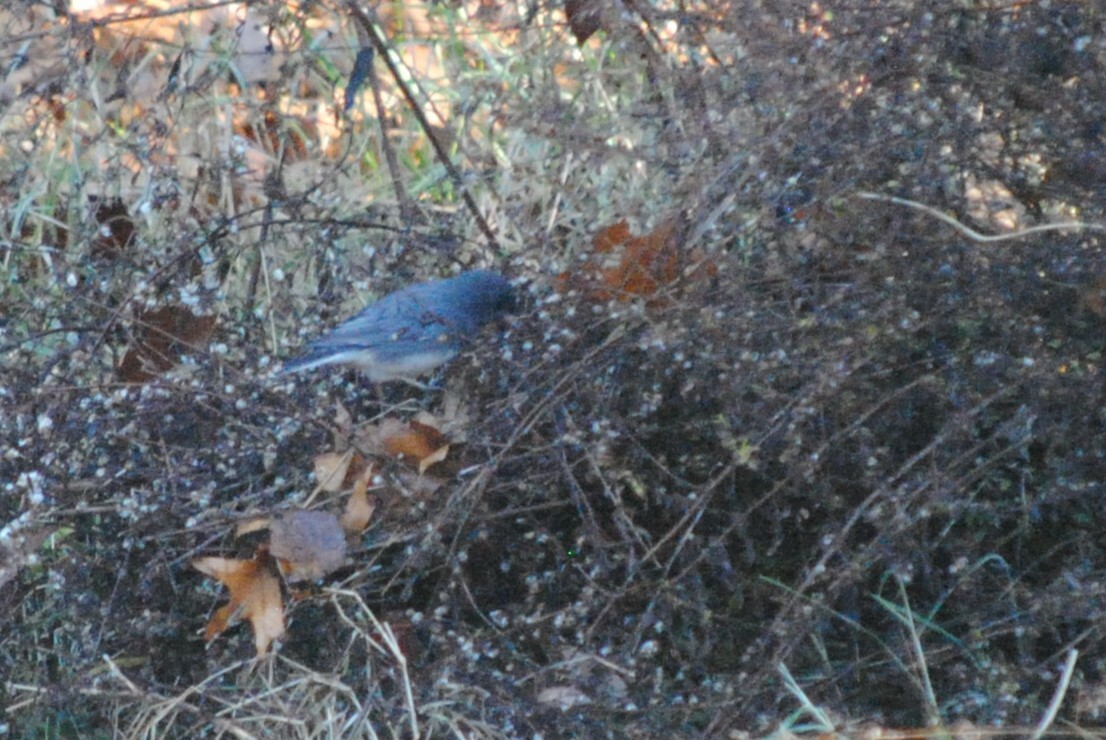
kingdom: Animalia
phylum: Chordata
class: Aves
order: Passeriformes
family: Passerellidae
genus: Junco
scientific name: Junco hyemalis
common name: Dark-eyed junco
